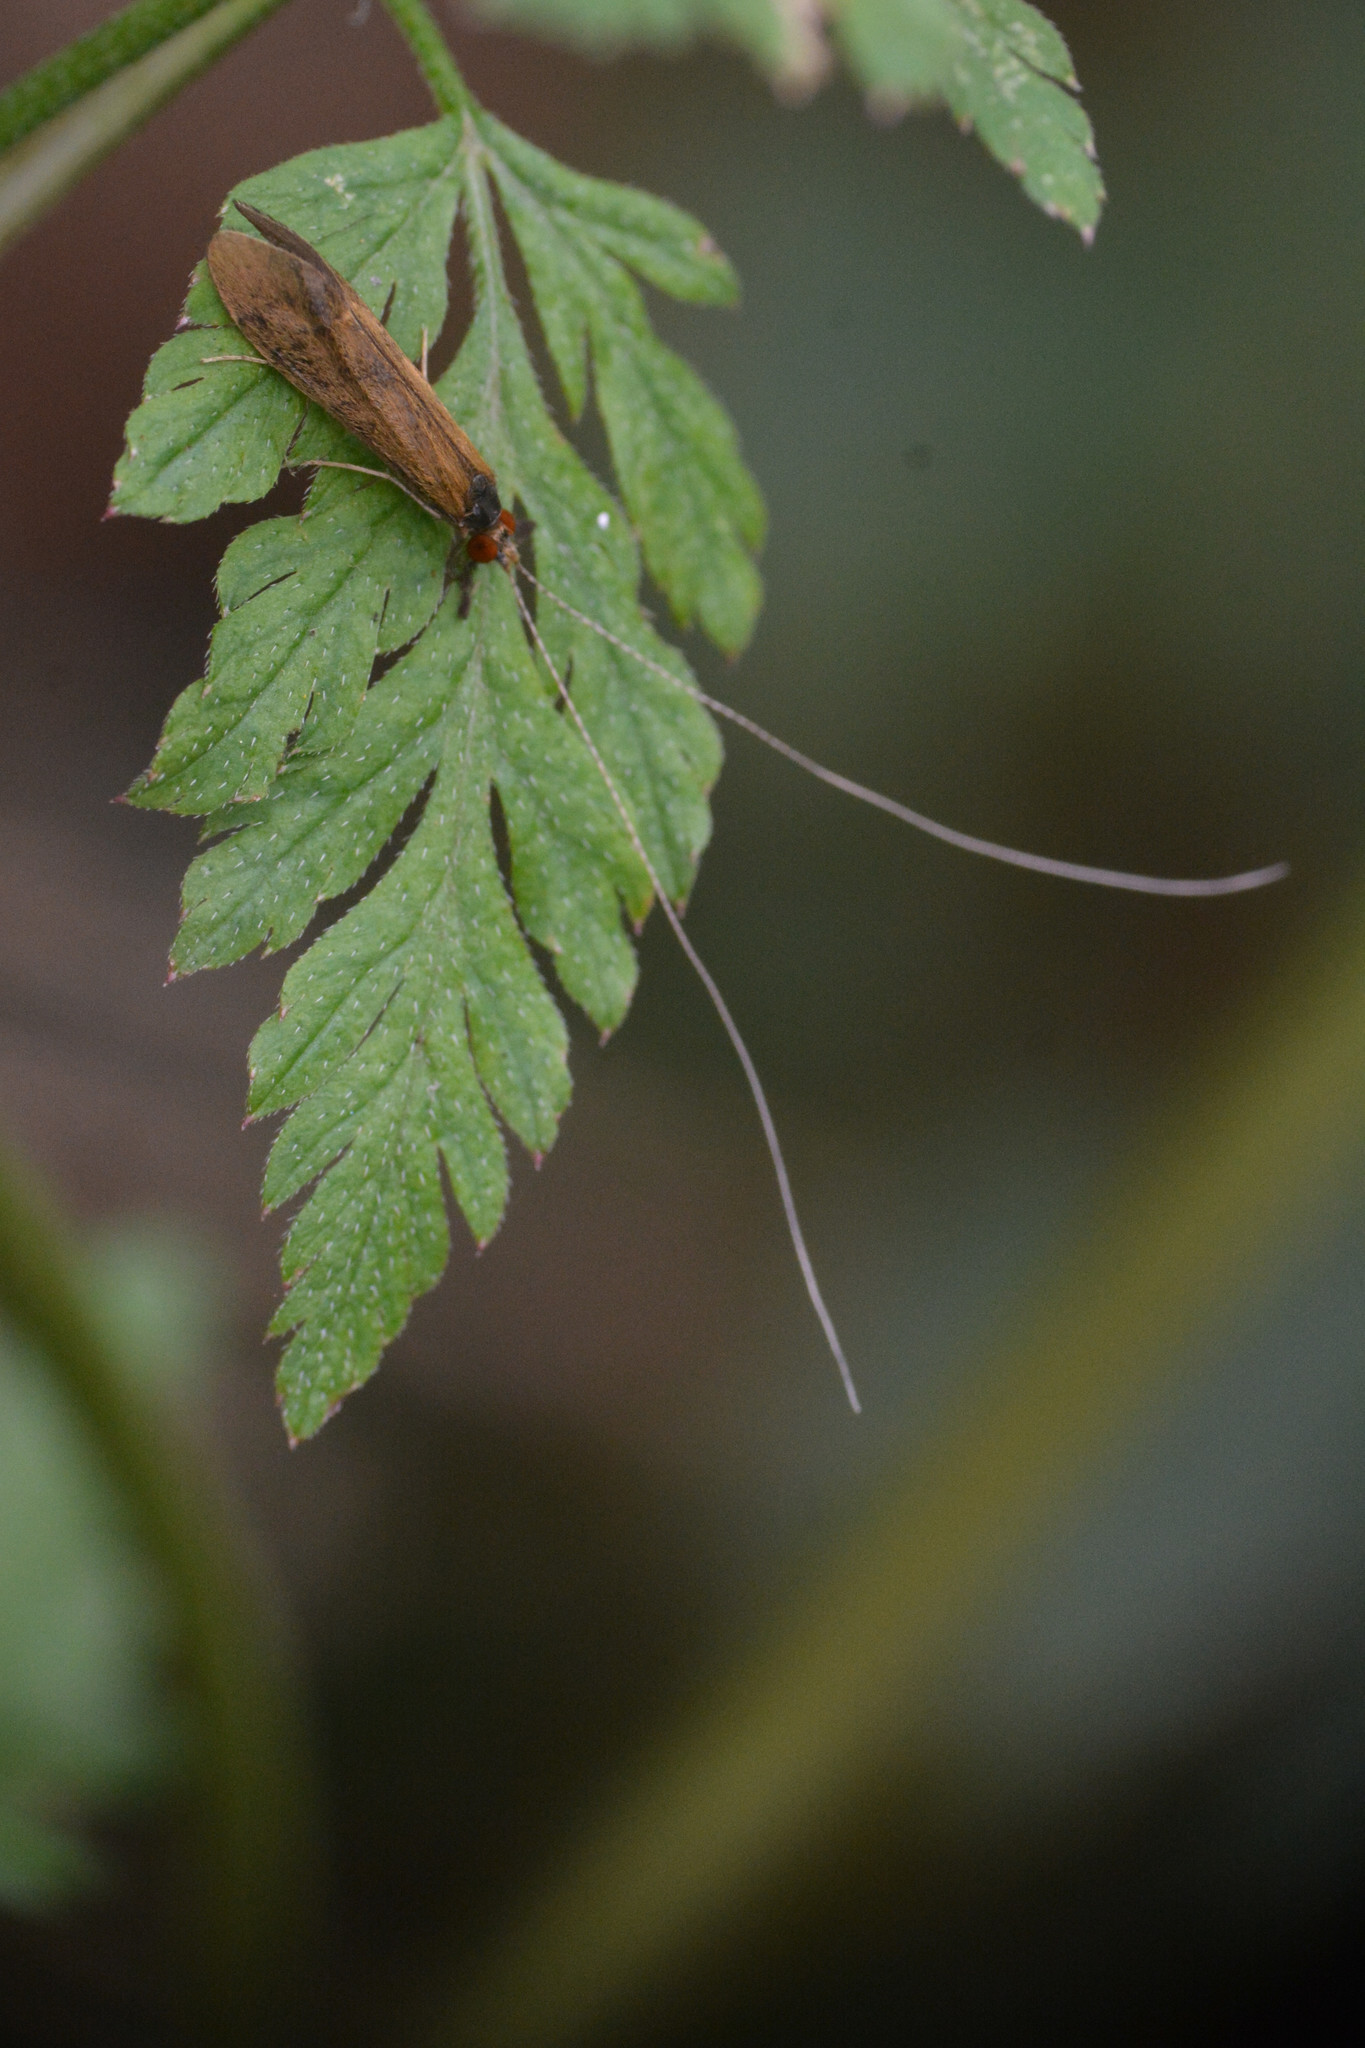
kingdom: Animalia
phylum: Arthropoda
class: Insecta
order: Trichoptera
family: Leptoceridae
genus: Mystacides
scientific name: Mystacides longicornis
